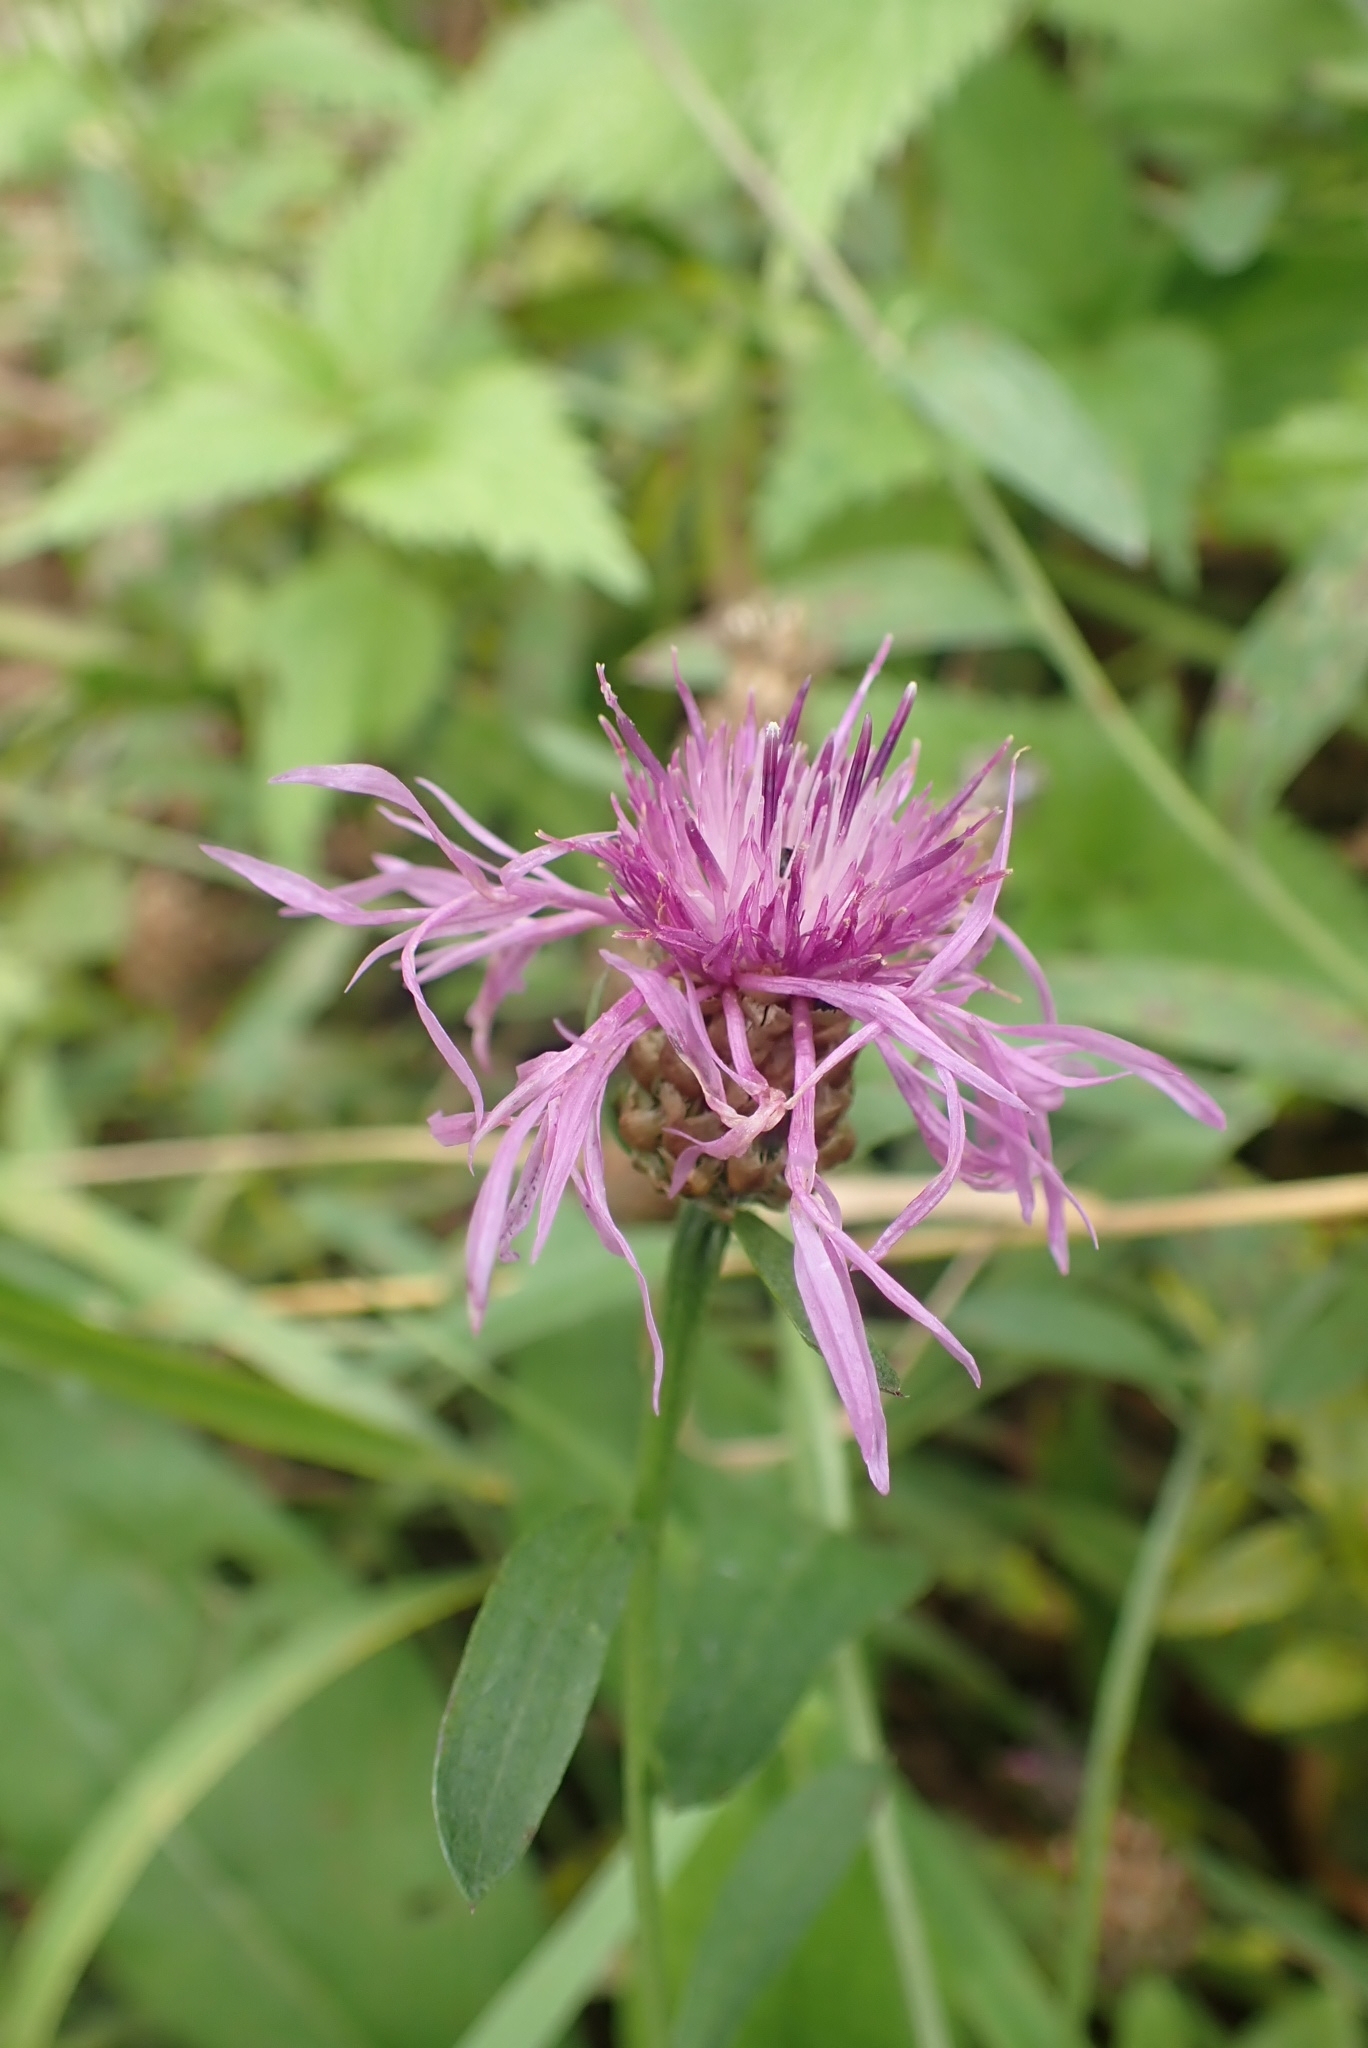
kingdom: Plantae
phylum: Tracheophyta
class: Magnoliopsida
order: Asterales
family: Asteraceae
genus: Centaurea
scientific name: Centaurea jacea
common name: Brown knapweed
